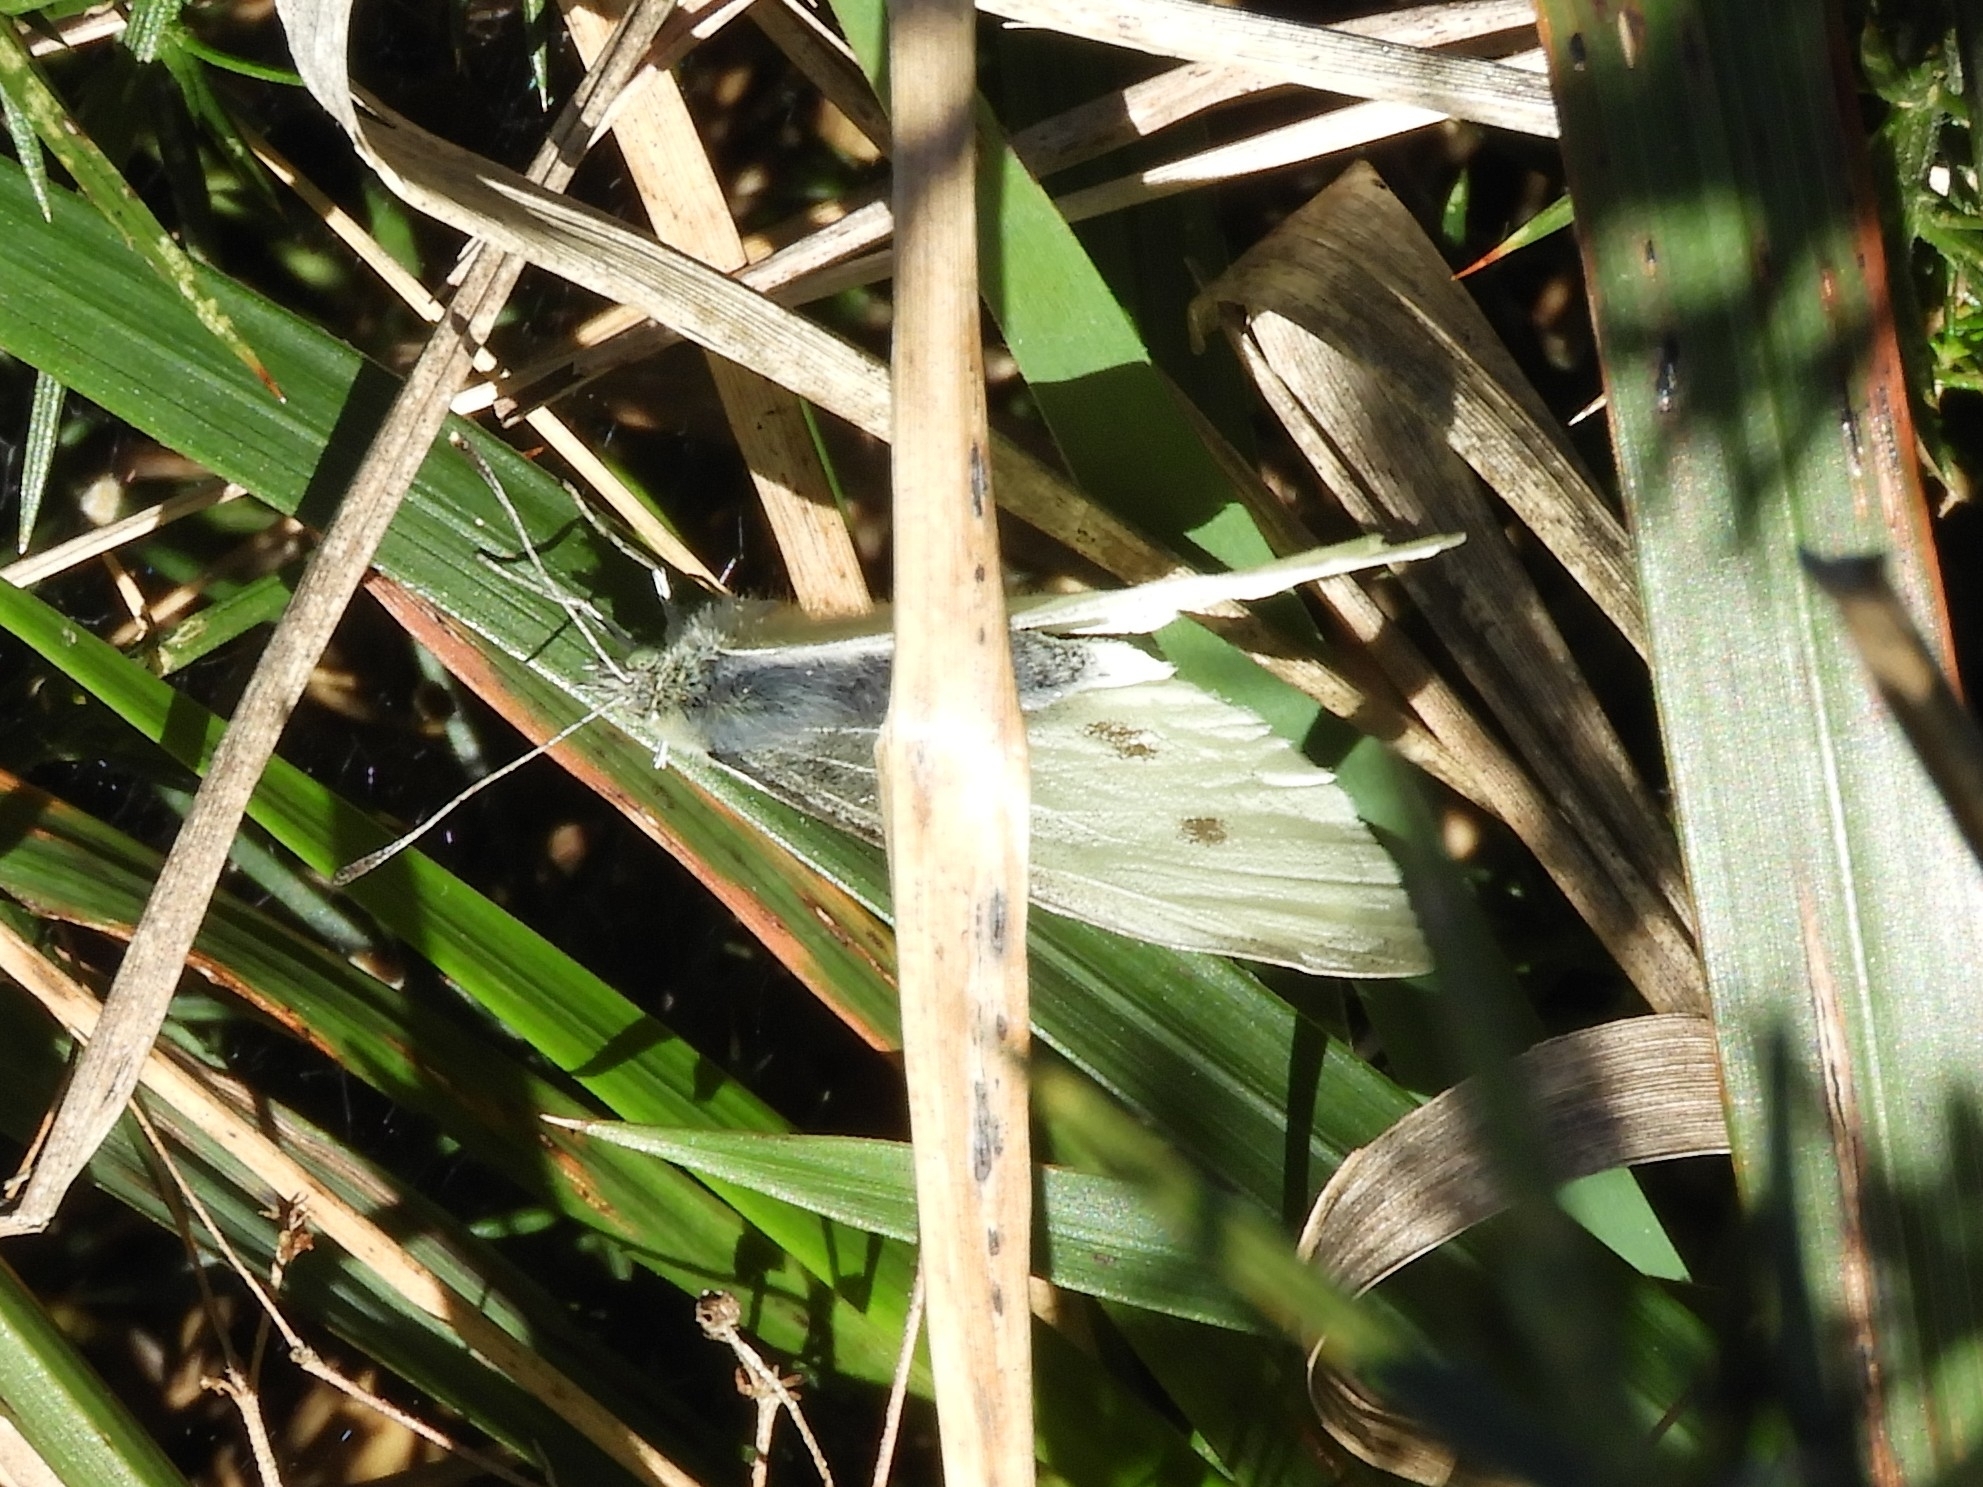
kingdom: Animalia
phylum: Arthropoda
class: Insecta
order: Lepidoptera
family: Pieridae
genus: Pieris
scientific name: Pieris rapae
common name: Small white
